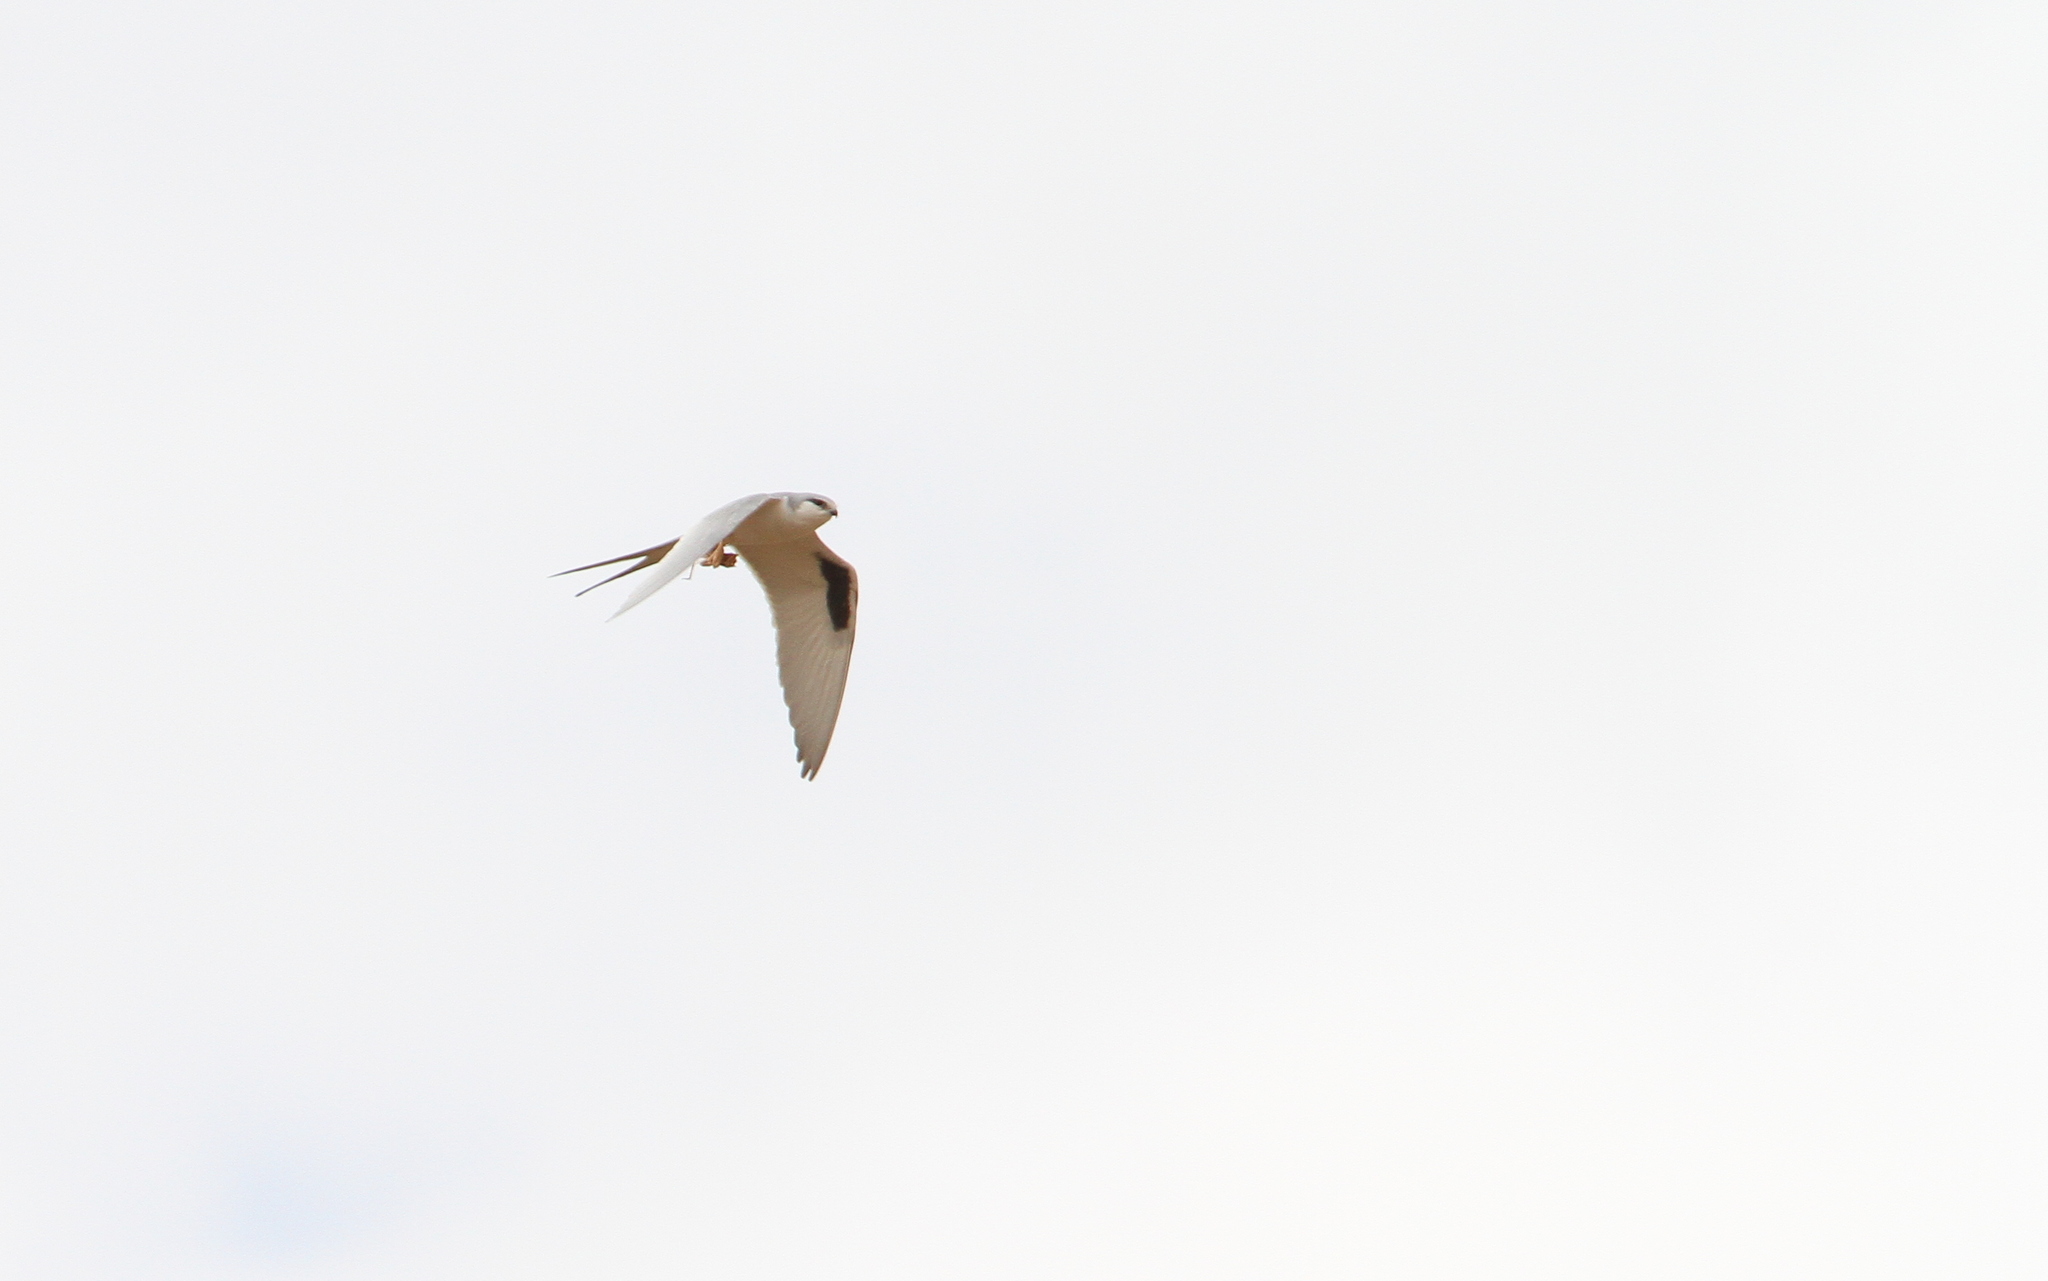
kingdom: Animalia
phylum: Chordata
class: Aves
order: Accipitriformes
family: Accipitridae
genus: Chelictinia
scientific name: Chelictinia riocourii
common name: Scissor-tailed kite
